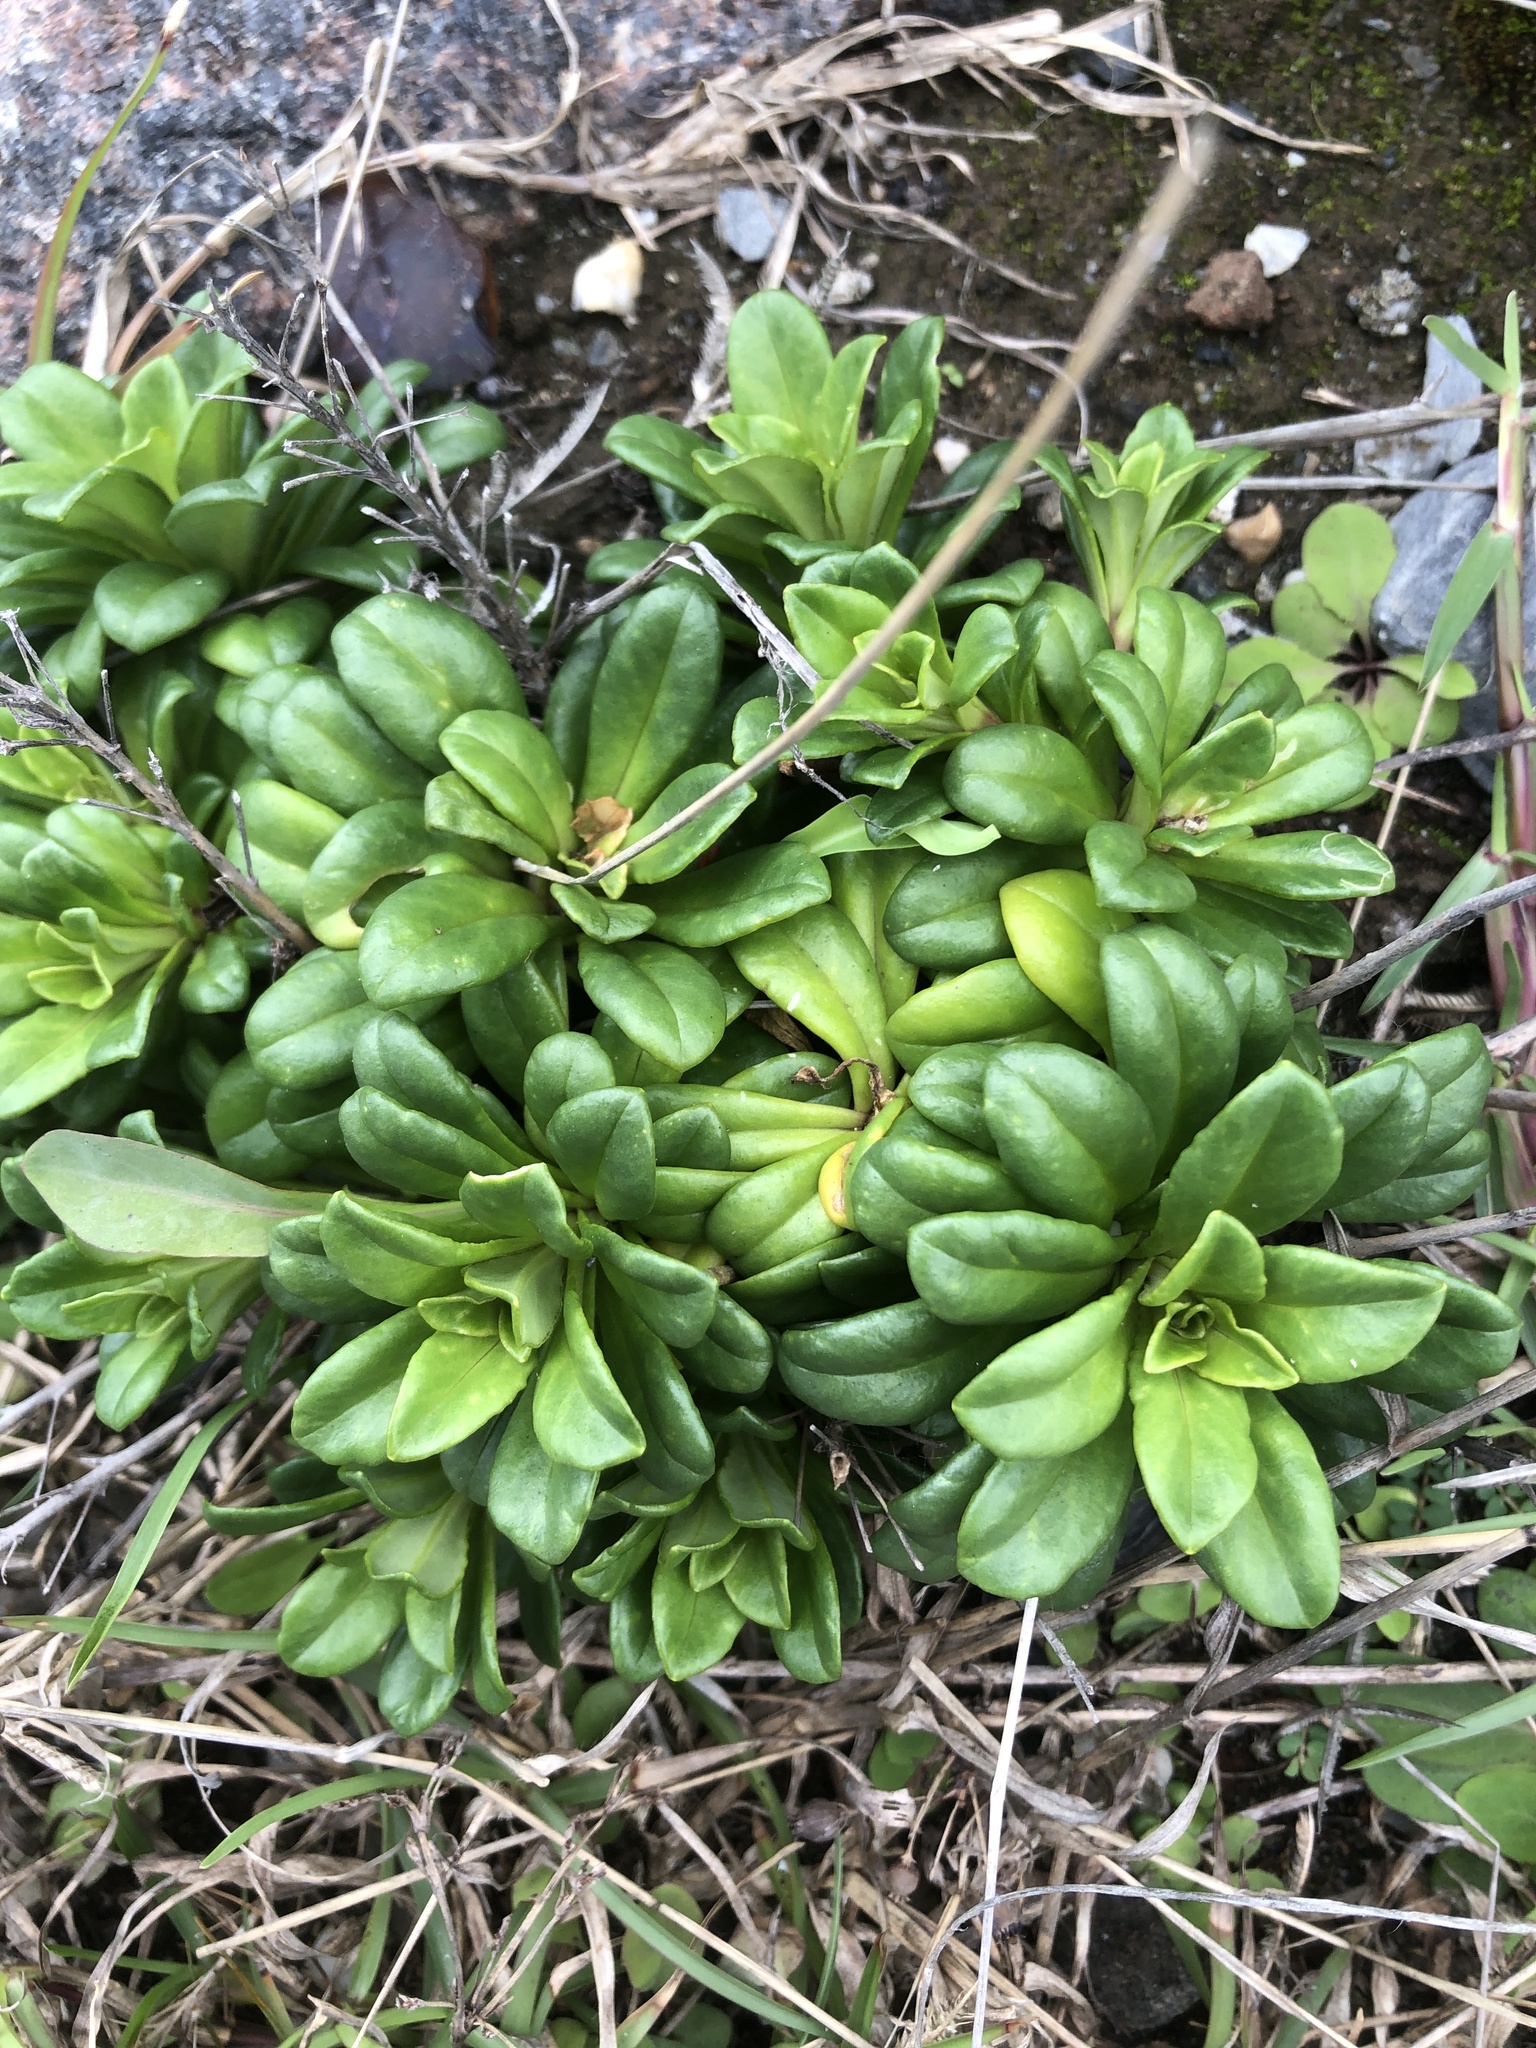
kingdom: Plantae
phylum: Tracheophyta
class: Magnoliopsida
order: Ericales
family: Primulaceae
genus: Lysimachia
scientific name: Lysimachia mauritiana
